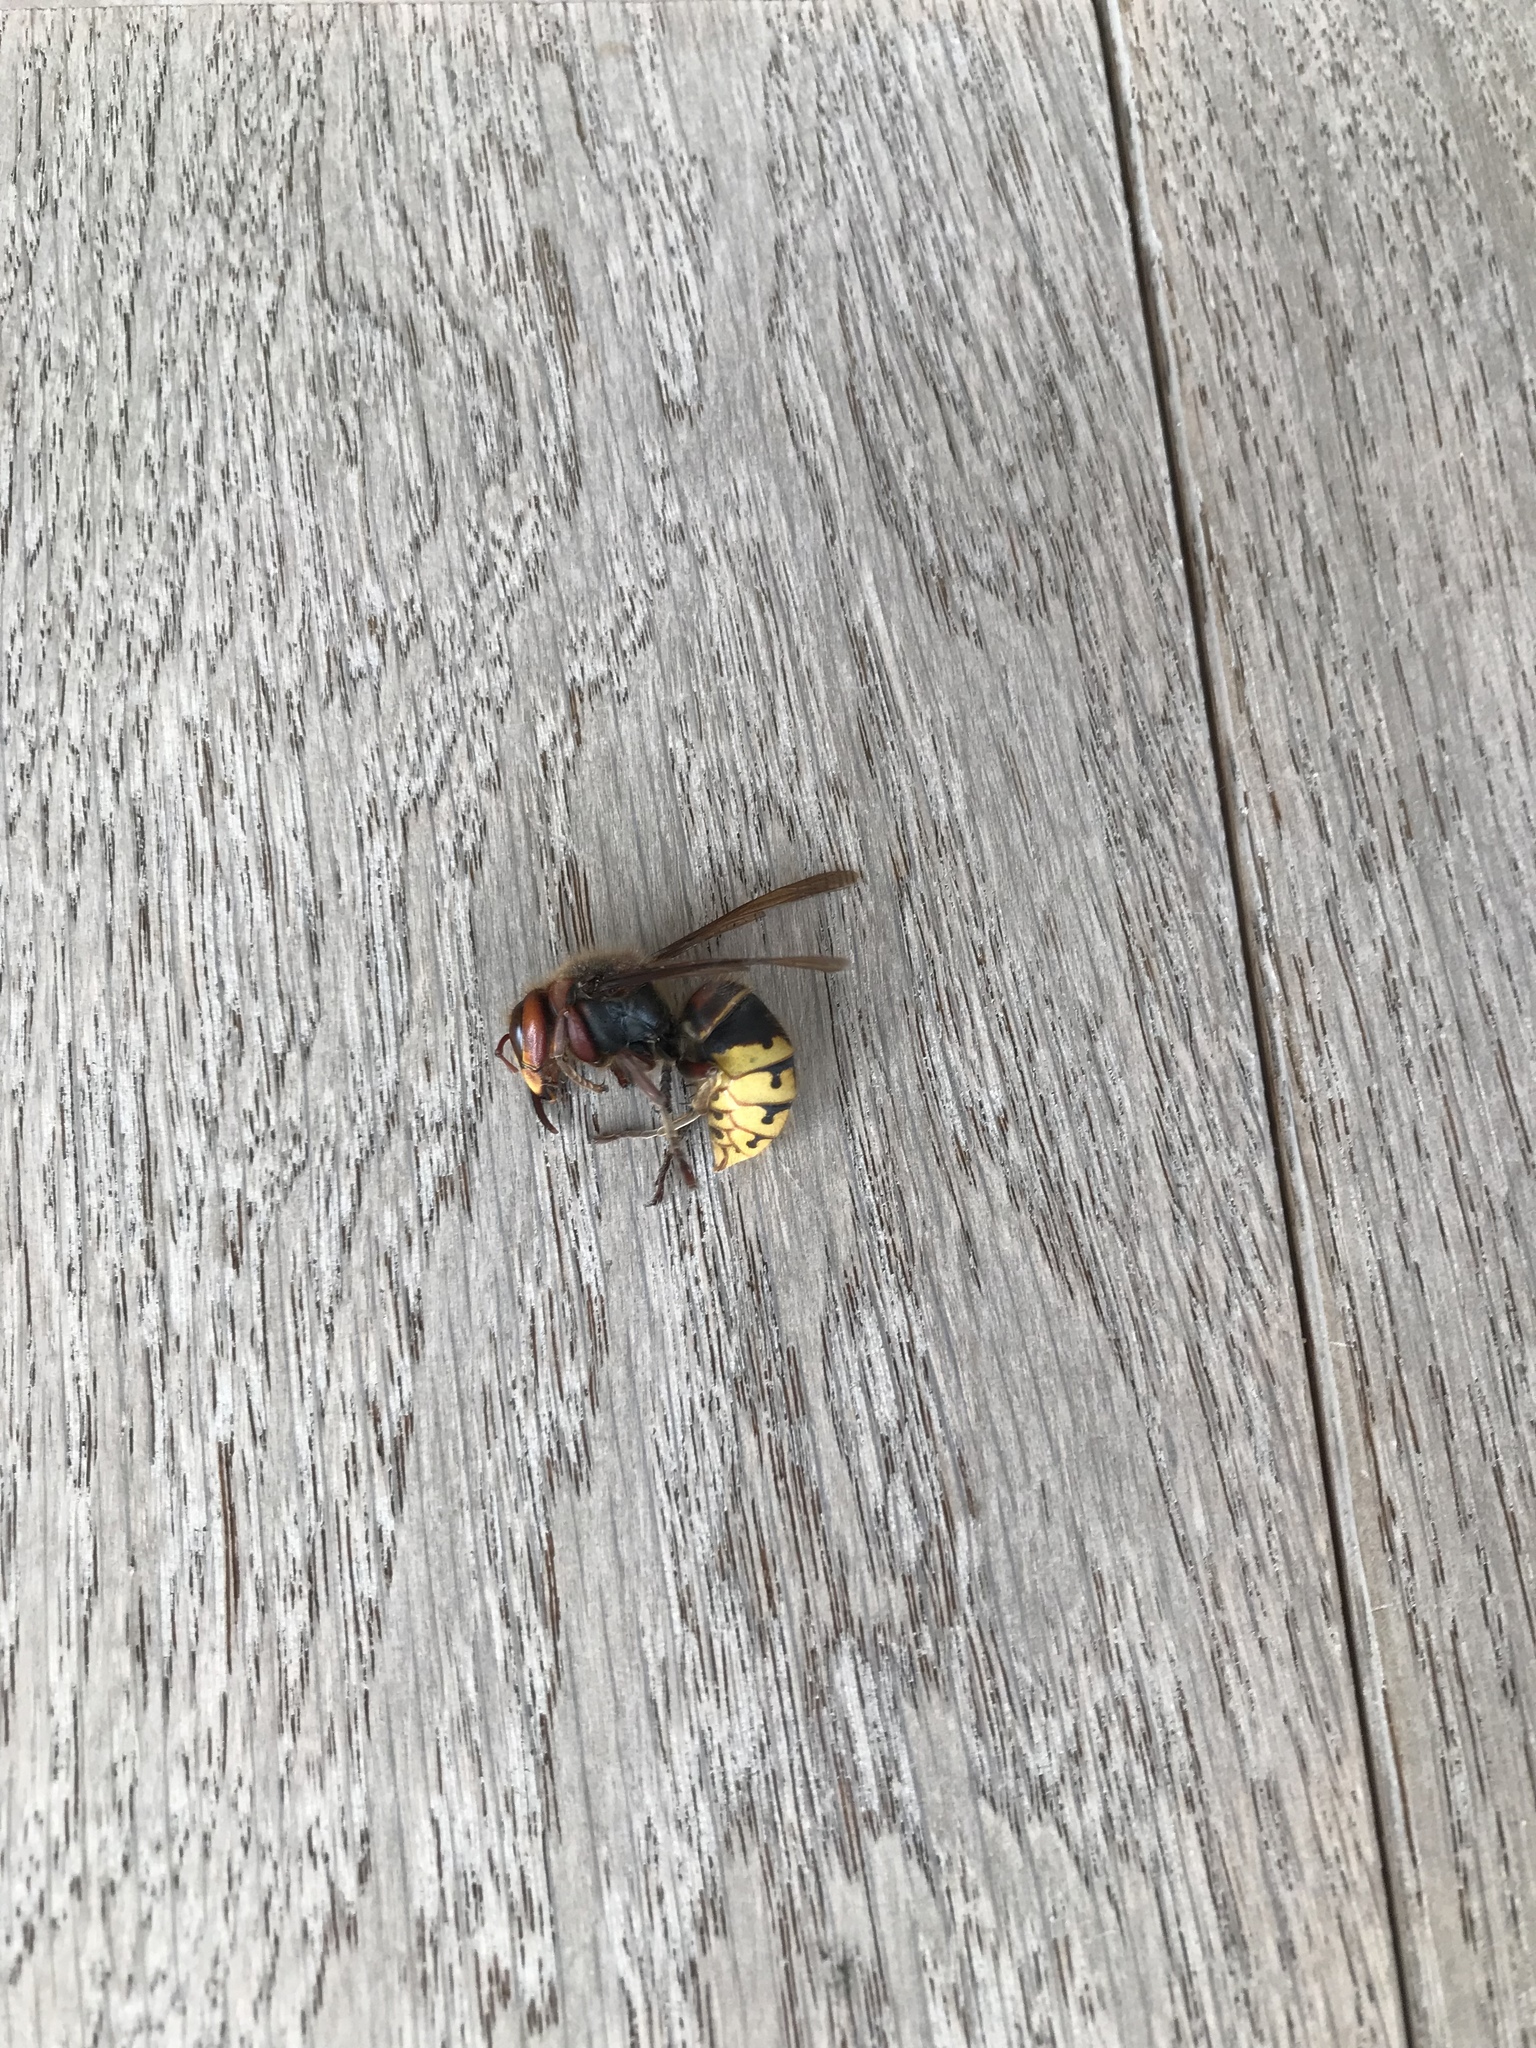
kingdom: Animalia
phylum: Arthropoda
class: Insecta
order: Hymenoptera
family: Vespidae
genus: Vespa
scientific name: Vespa crabro
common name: Hornet
